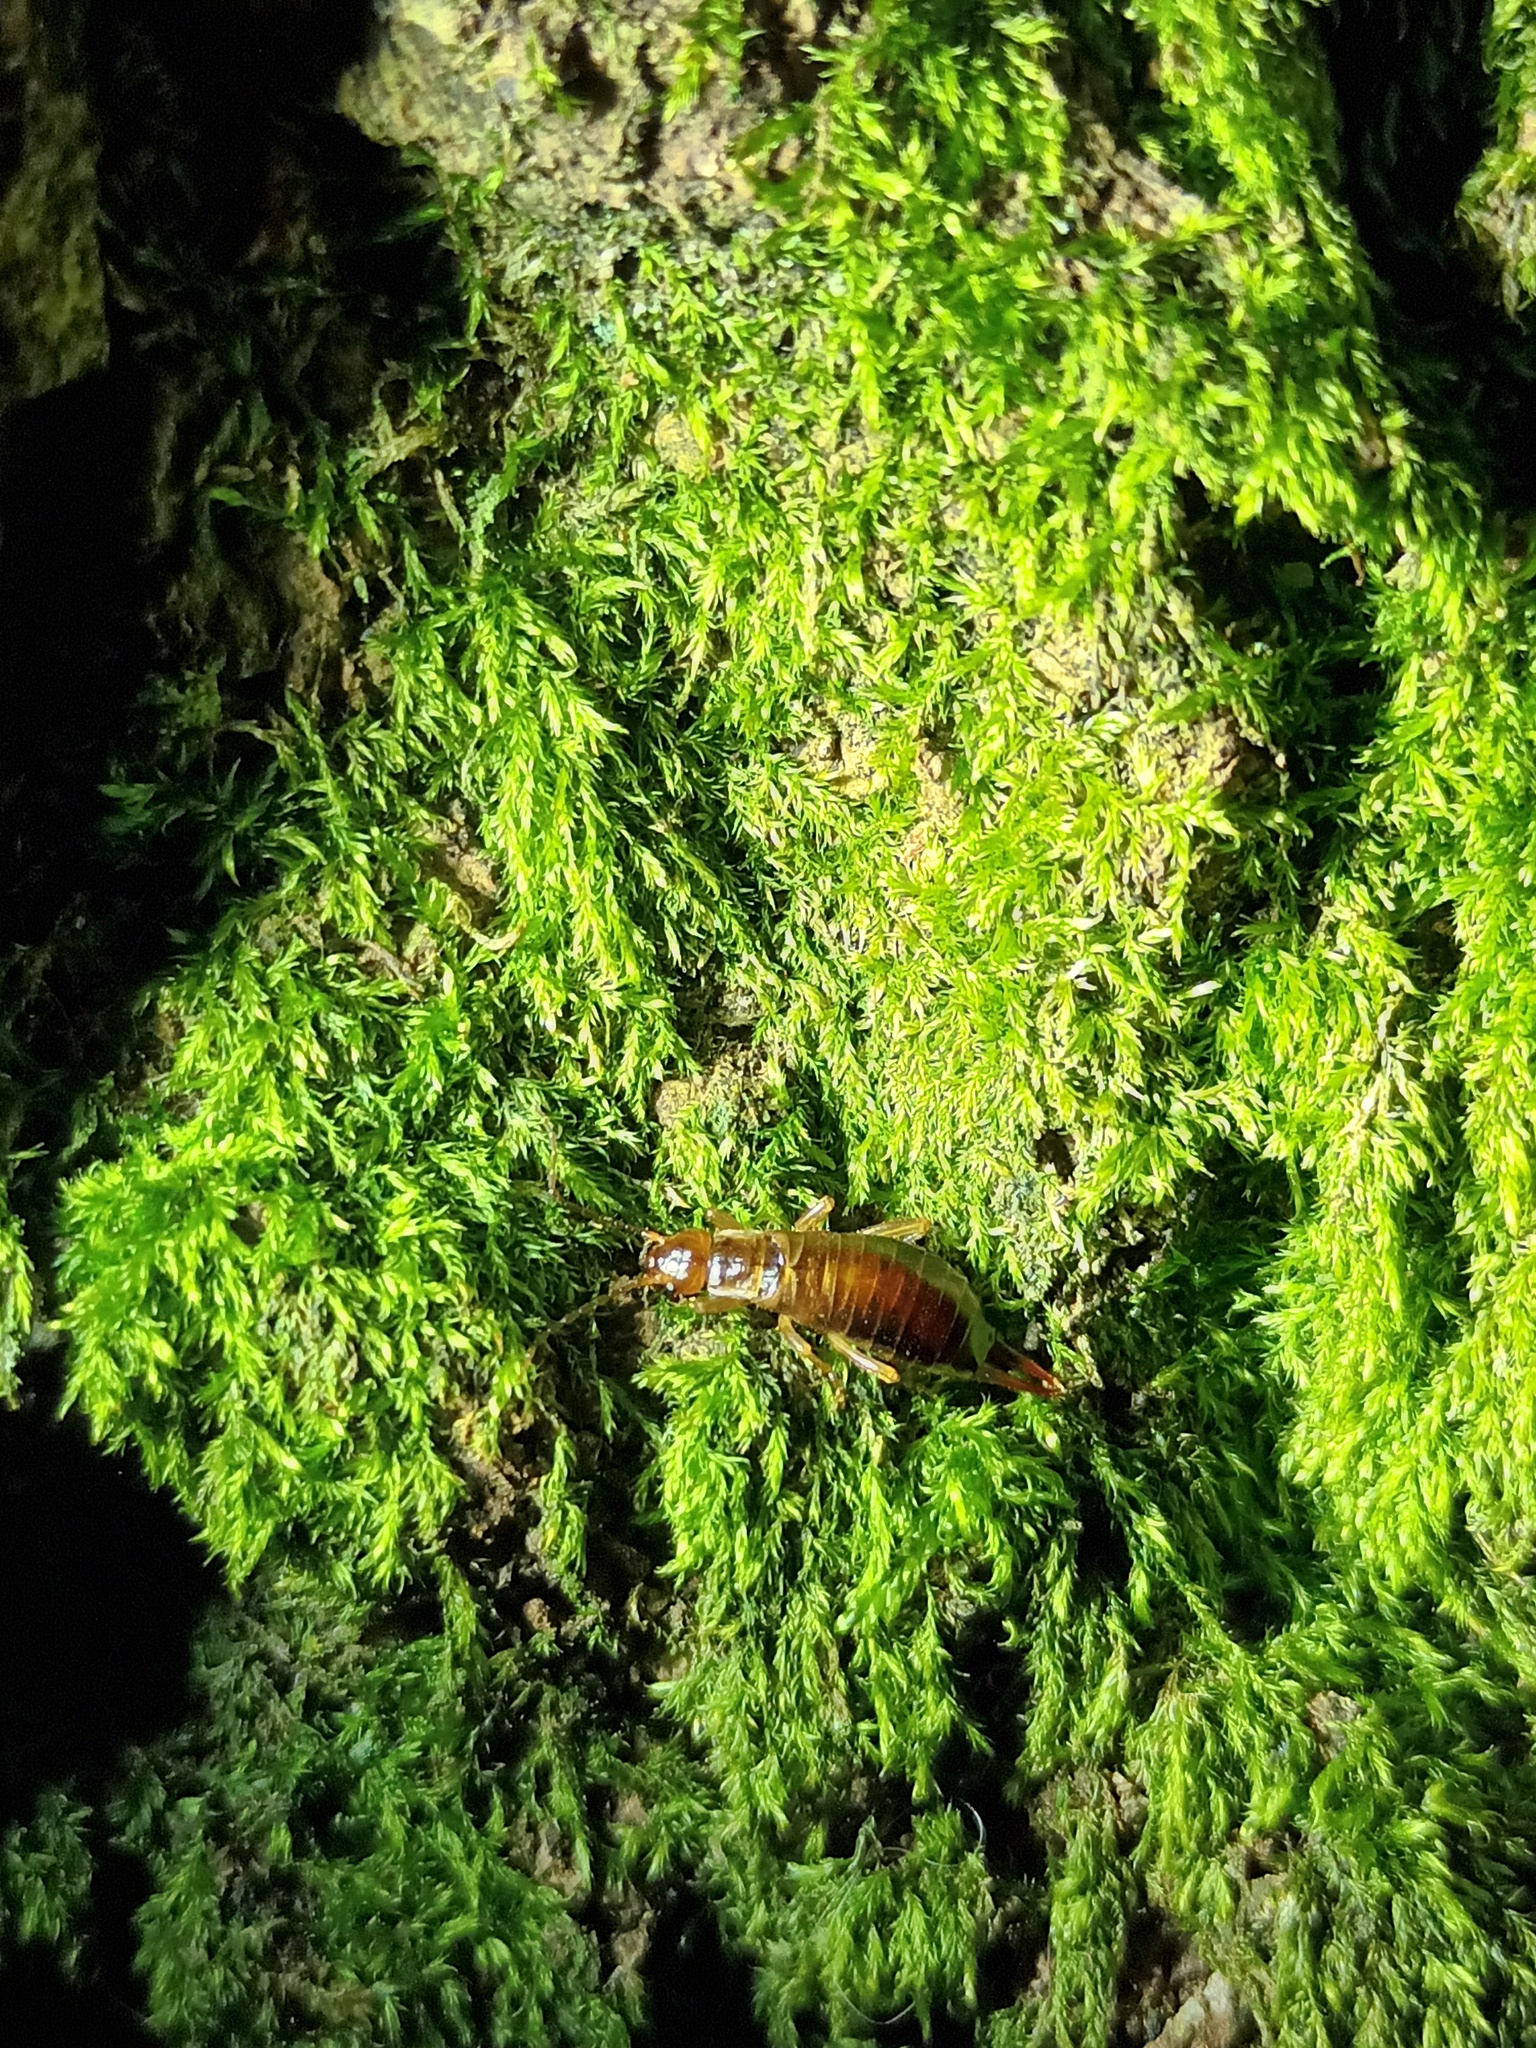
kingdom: Animalia
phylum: Arthropoda
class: Insecta
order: Dermaptera
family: Forficulidae
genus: Chelidurella
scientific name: Chelidurella acanthopygia
